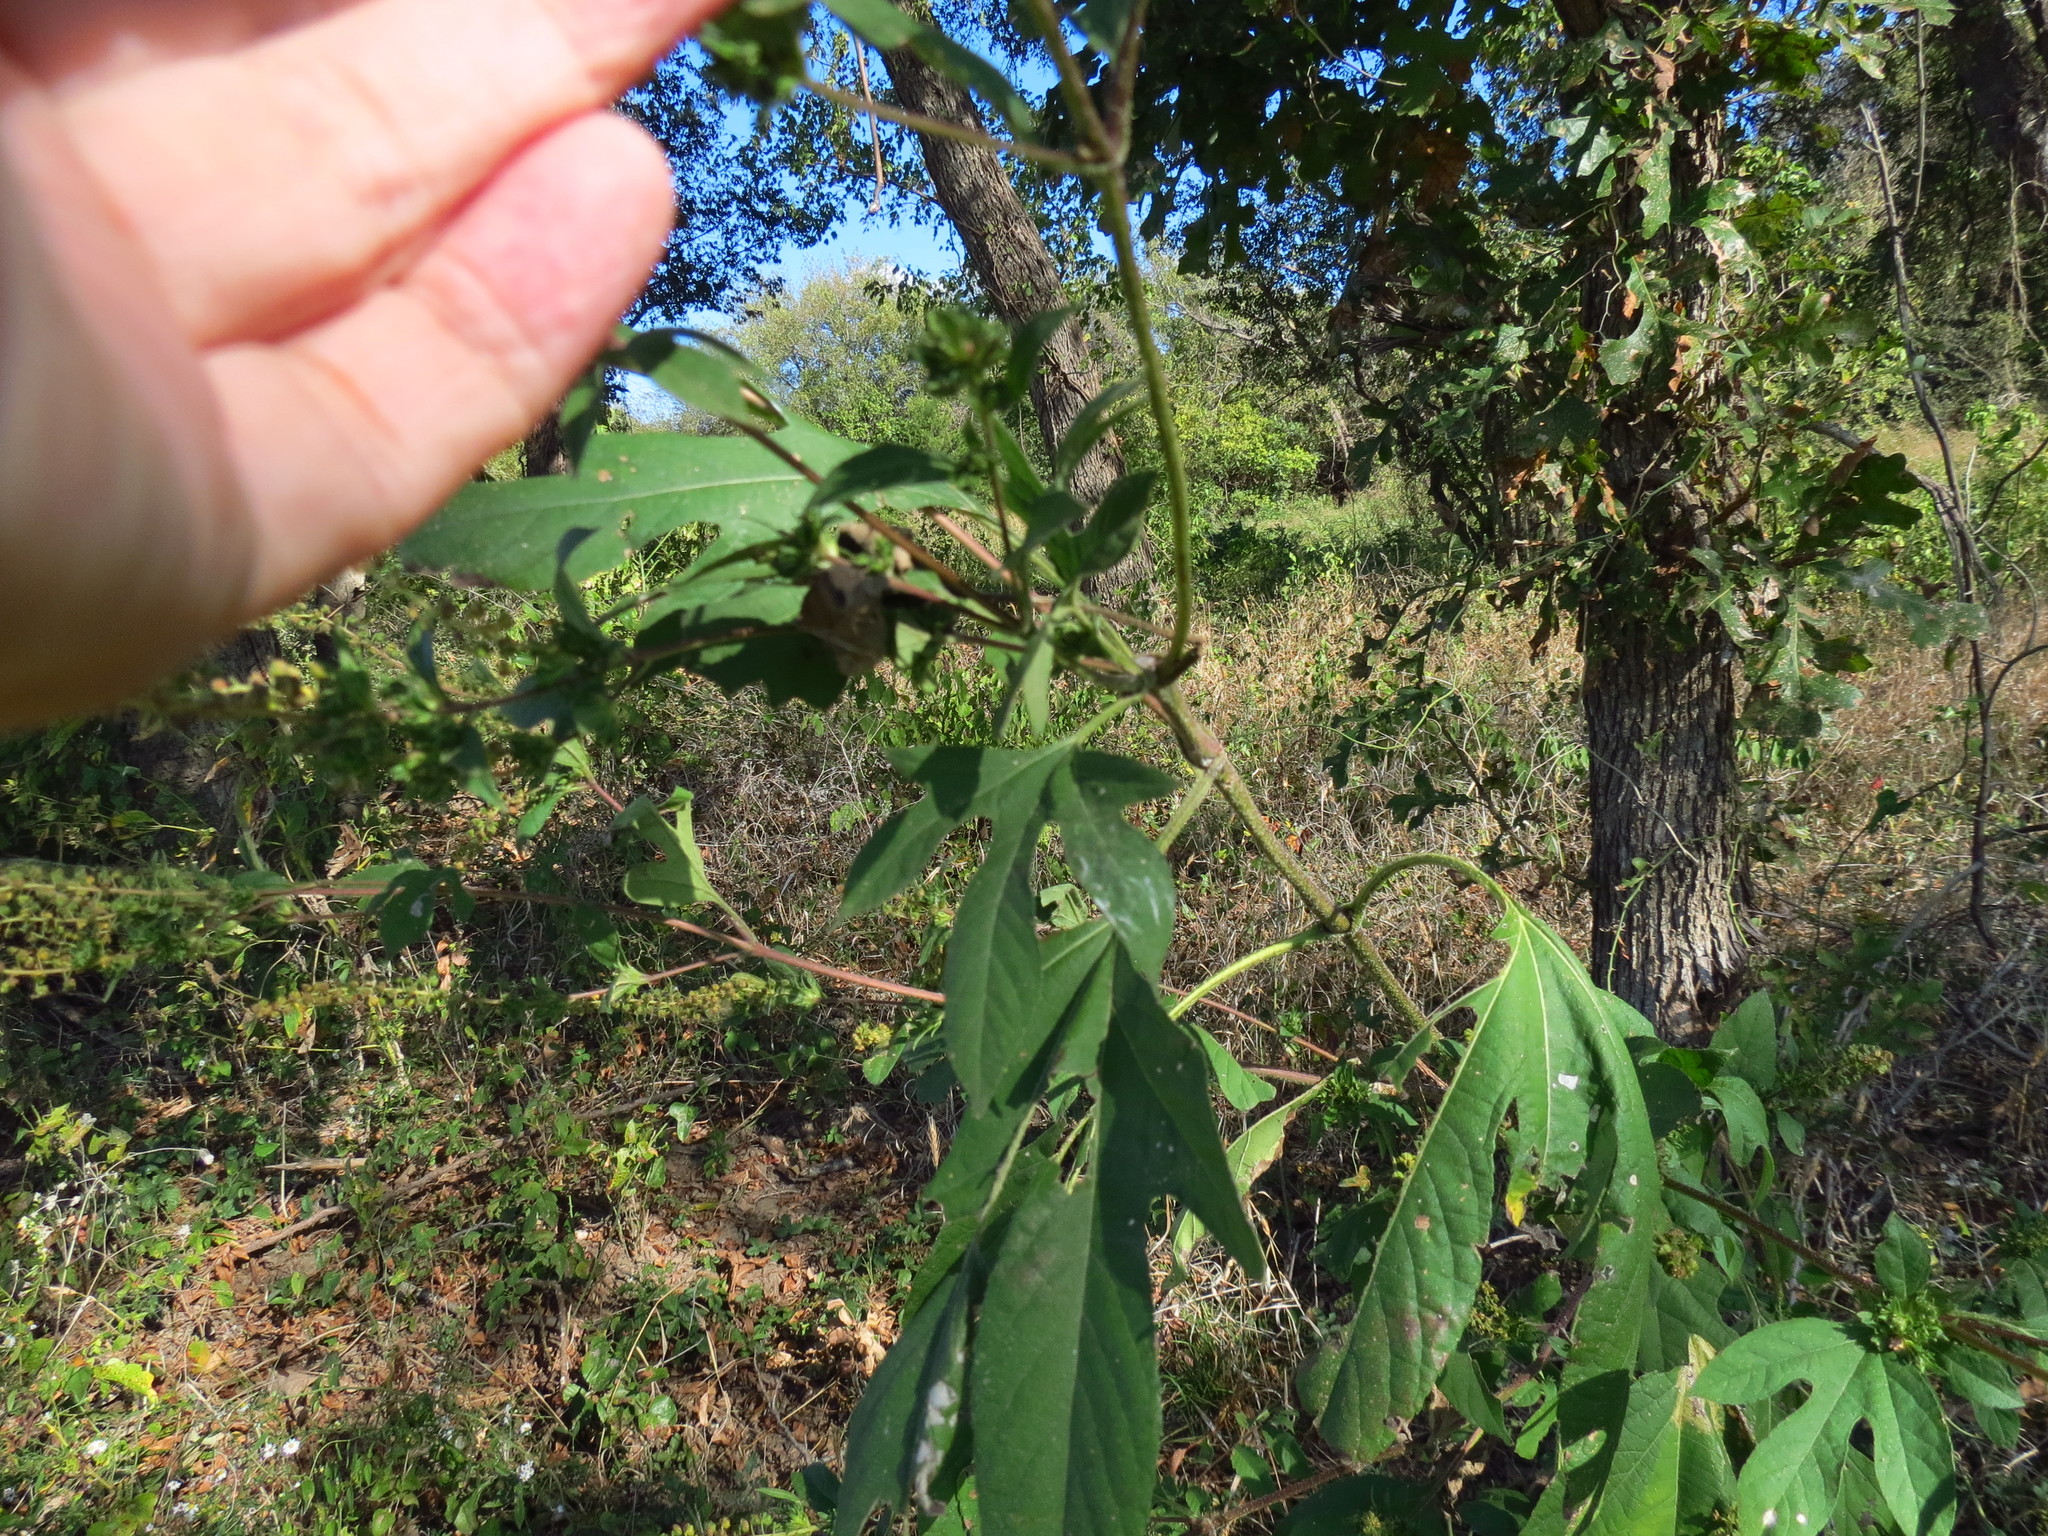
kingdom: Plantae
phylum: Tracheophyta
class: Magnoliopsida
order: Asterales
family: Asteraceae
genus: Ambrosia
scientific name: Ambrosia trifida
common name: Giant ragweed
